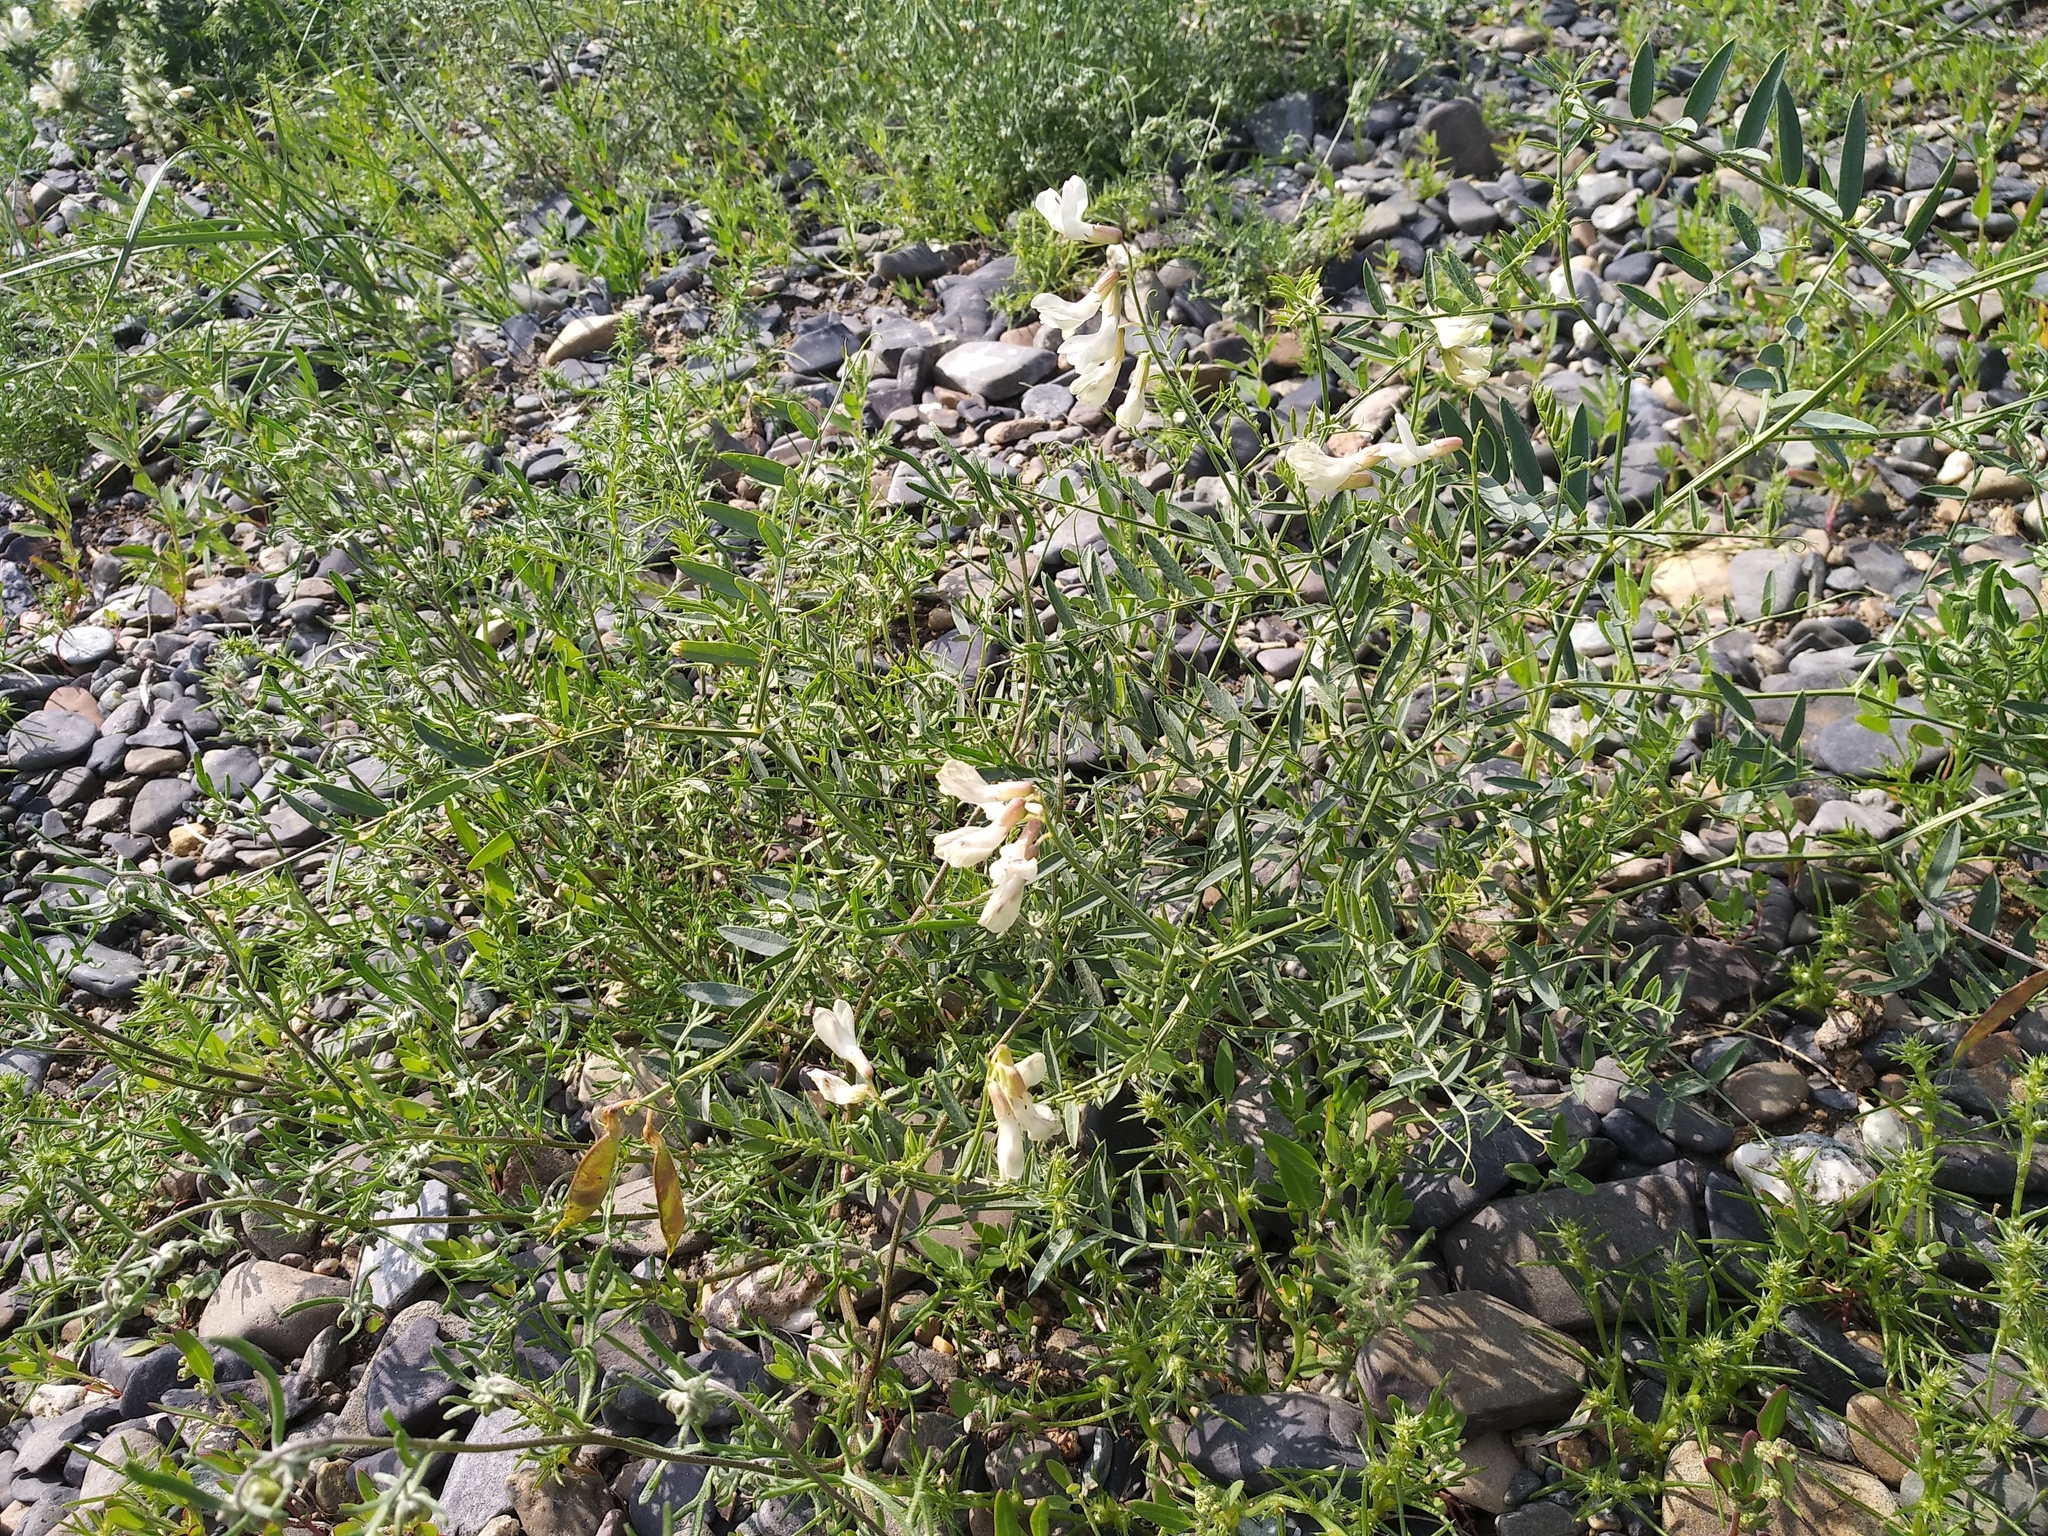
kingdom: Plantae
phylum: Tracheophyta
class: Magnoliopsida
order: Fabales
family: Fabaceae
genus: Vicia
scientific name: Vicia costata
